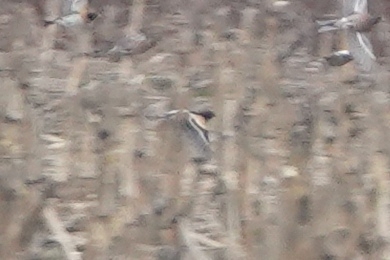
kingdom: Animalia
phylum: Chordata
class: Aves
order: Passeriformes
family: Fringillidae
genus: Fringilla
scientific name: Fringilla montifringilla
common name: Brambling
